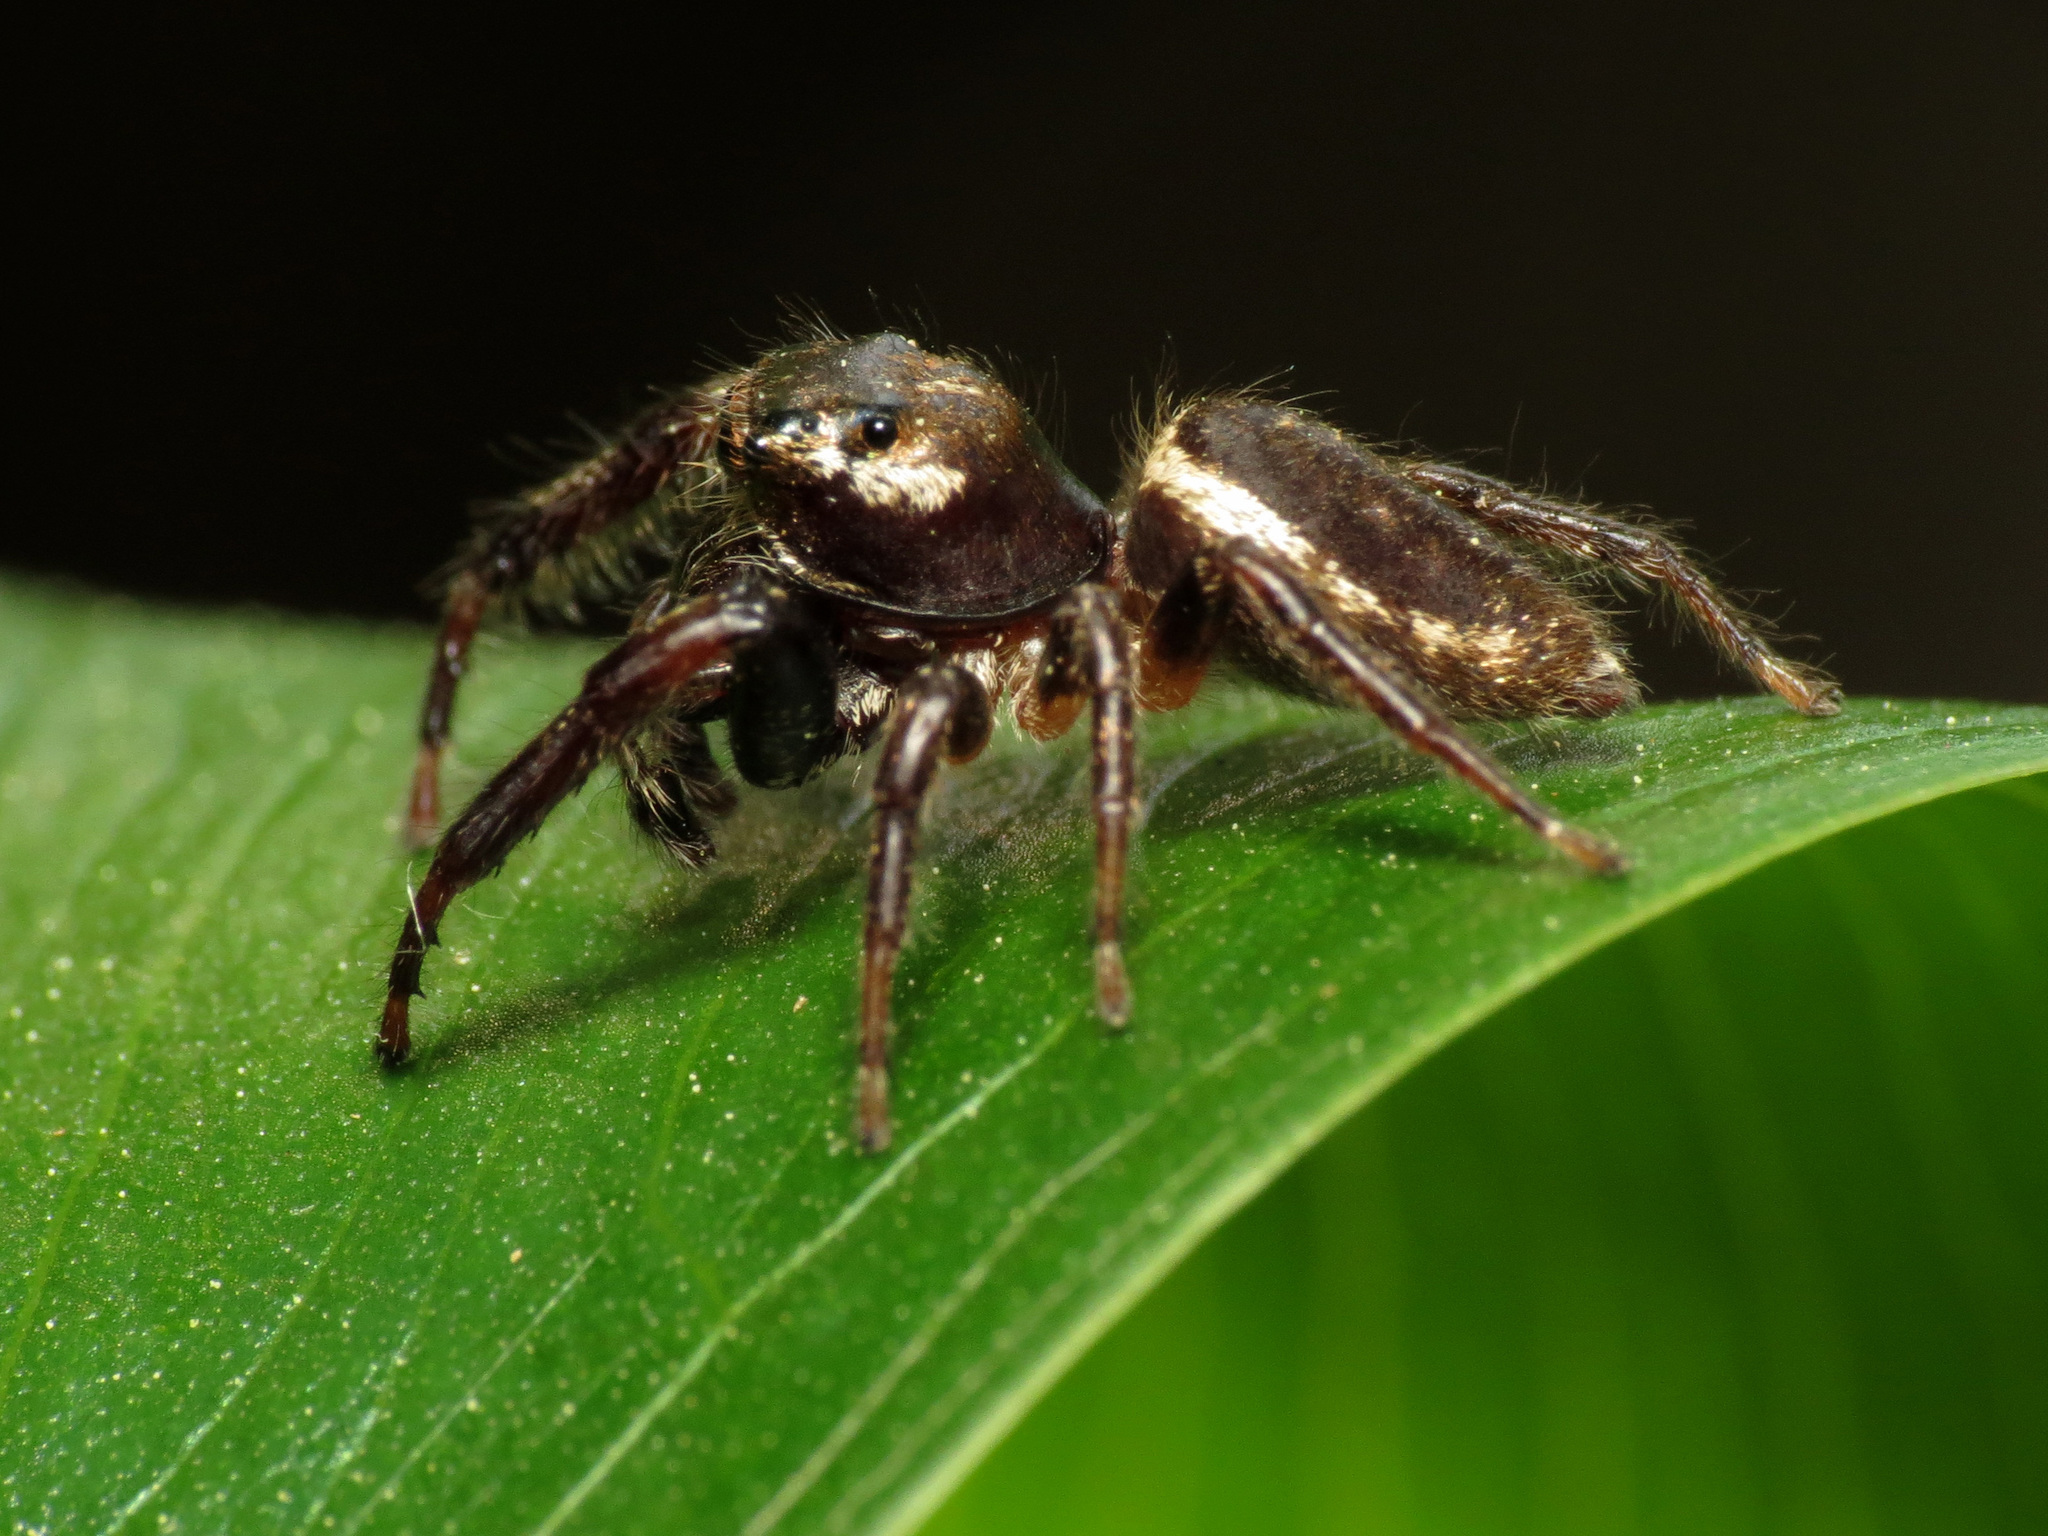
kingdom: Animalia
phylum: Arthropoda
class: Arachnida
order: Araneae
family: Salticidae
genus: Eris
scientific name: Eris militaris
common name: Bronze jumper
